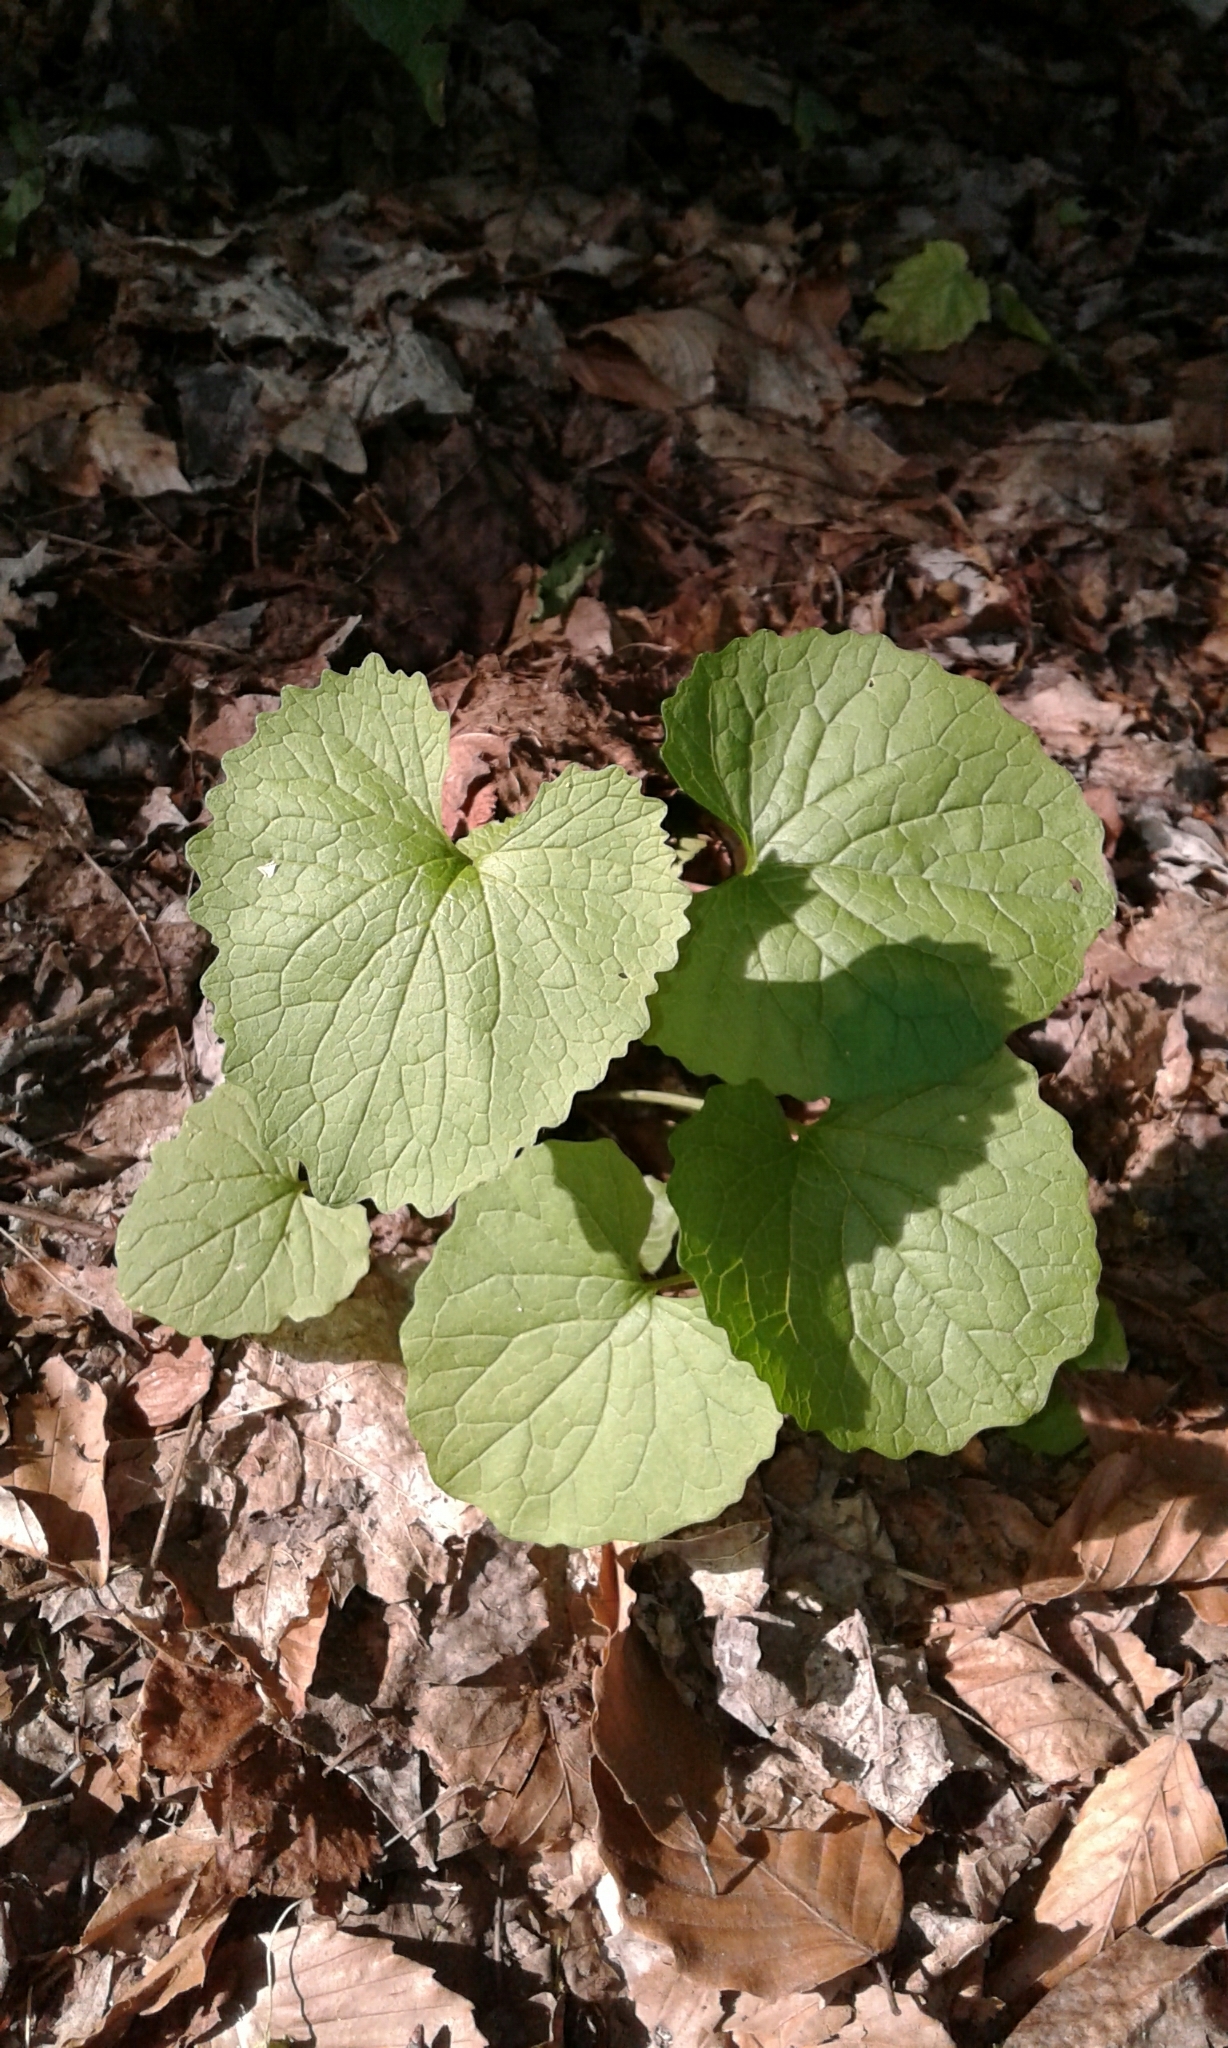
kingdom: Plantae
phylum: Tracheophyta
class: Magnoliopsida
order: Brassicales
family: Brassicaceae
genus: Alliaria
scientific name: Alliaria petiolata
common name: Garlic mustard
